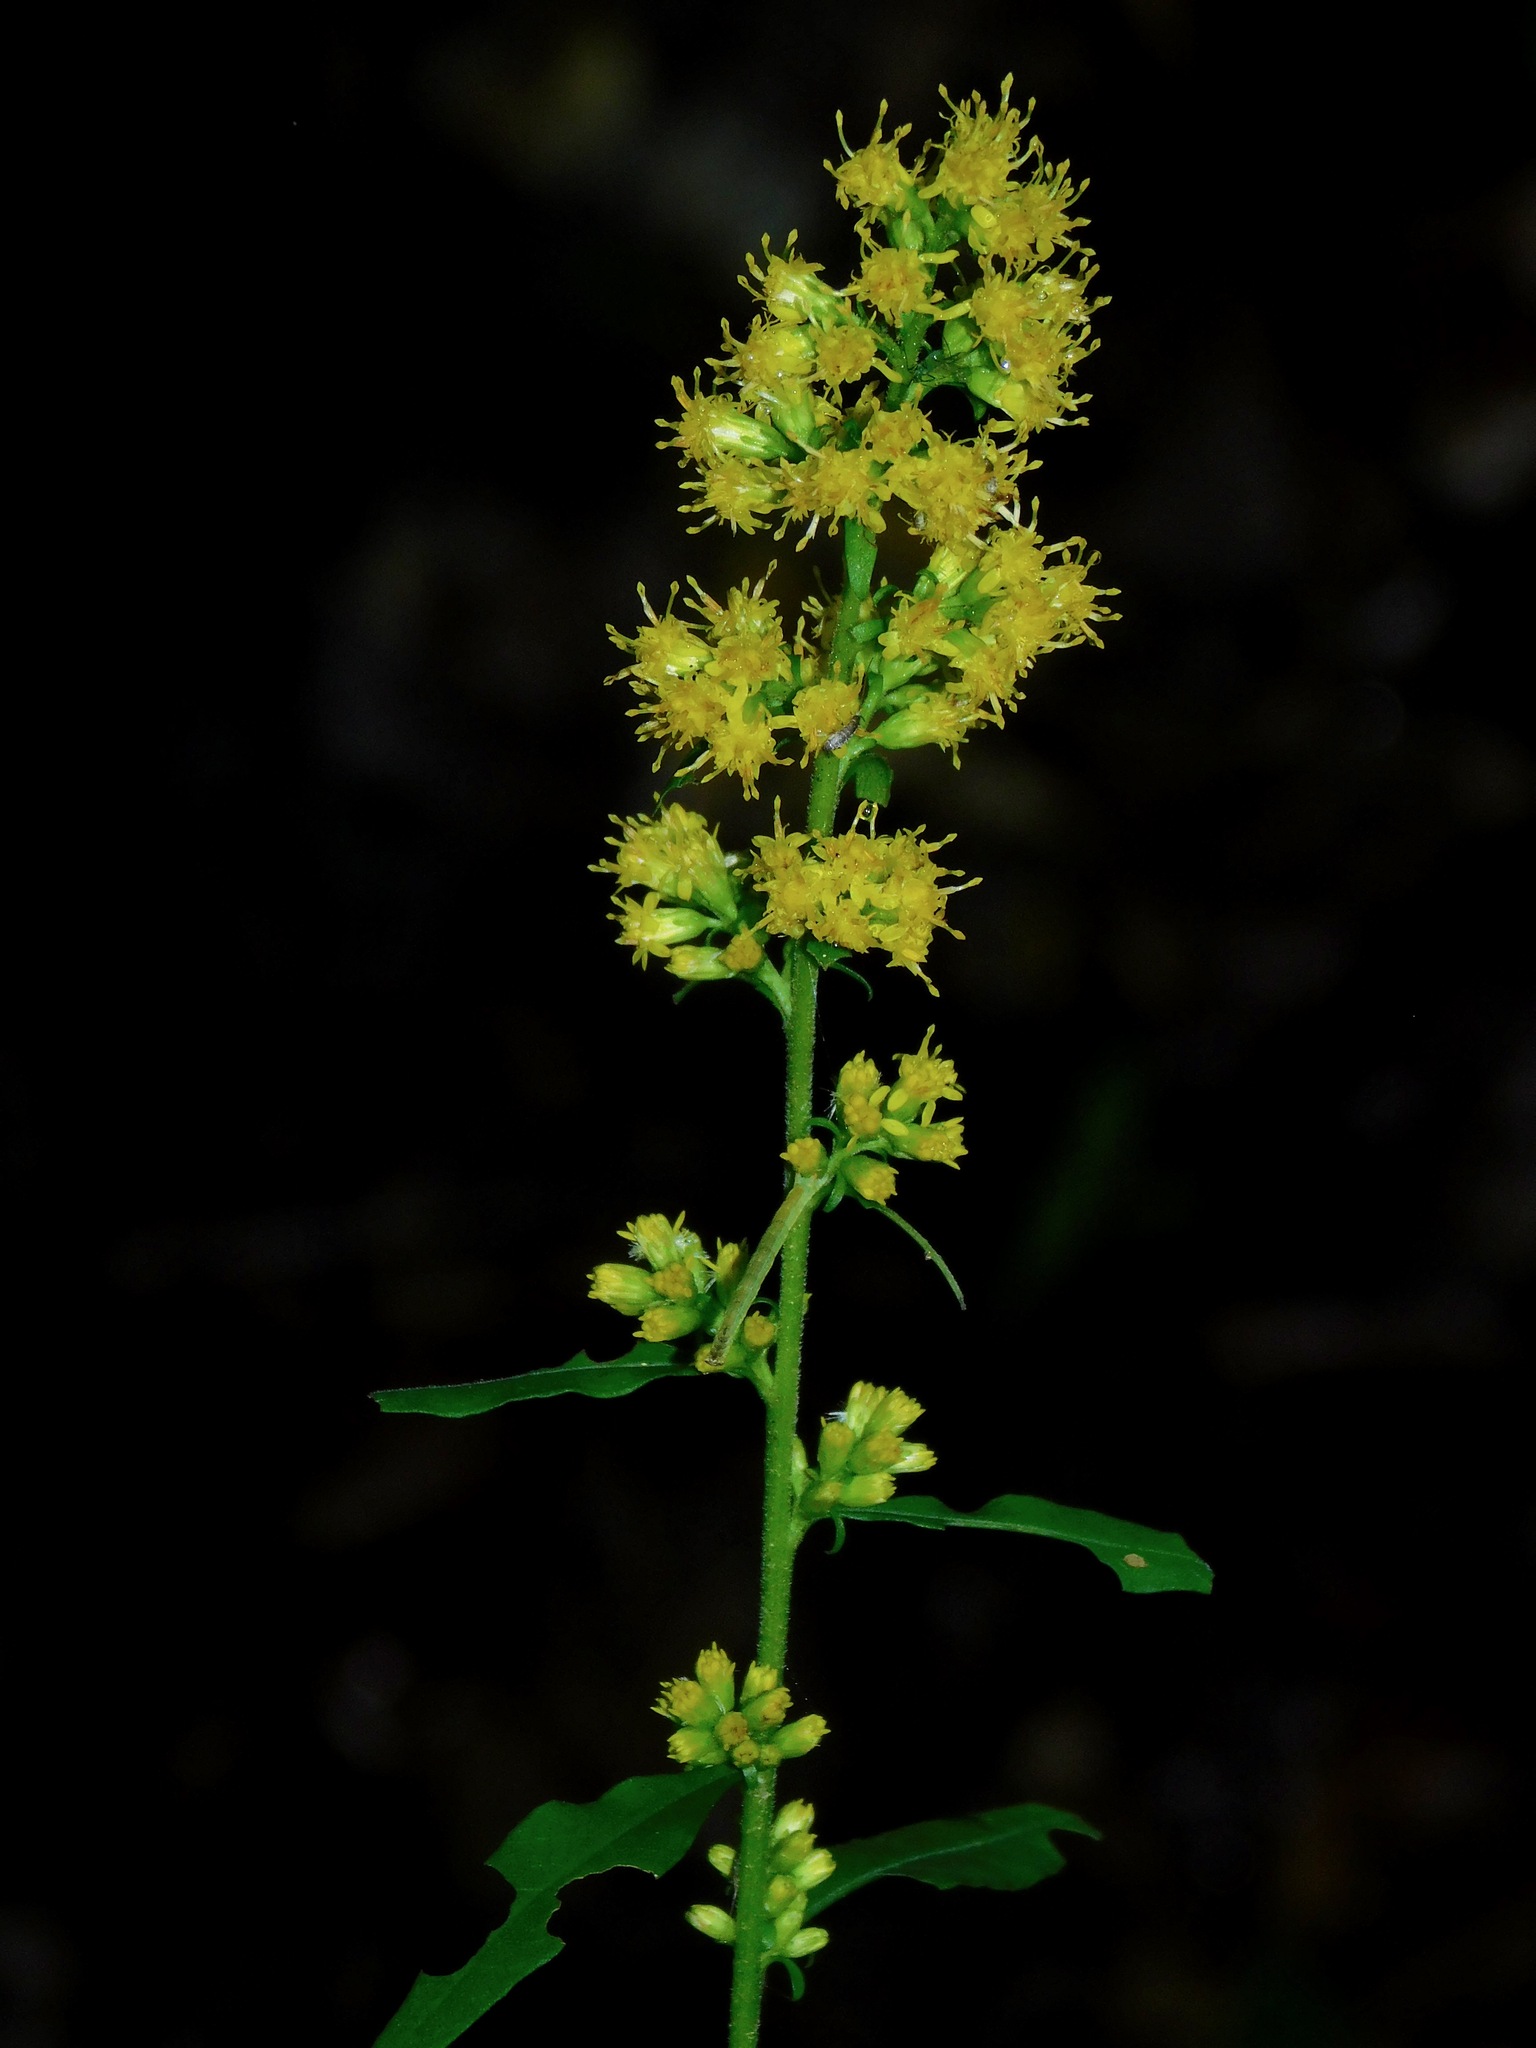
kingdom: Plantae
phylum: Tracheophyta
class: Magnoliopsida
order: Asterales
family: Asteraceae
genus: Solidago
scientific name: Solidago hispida
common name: Hairy goldenrod
